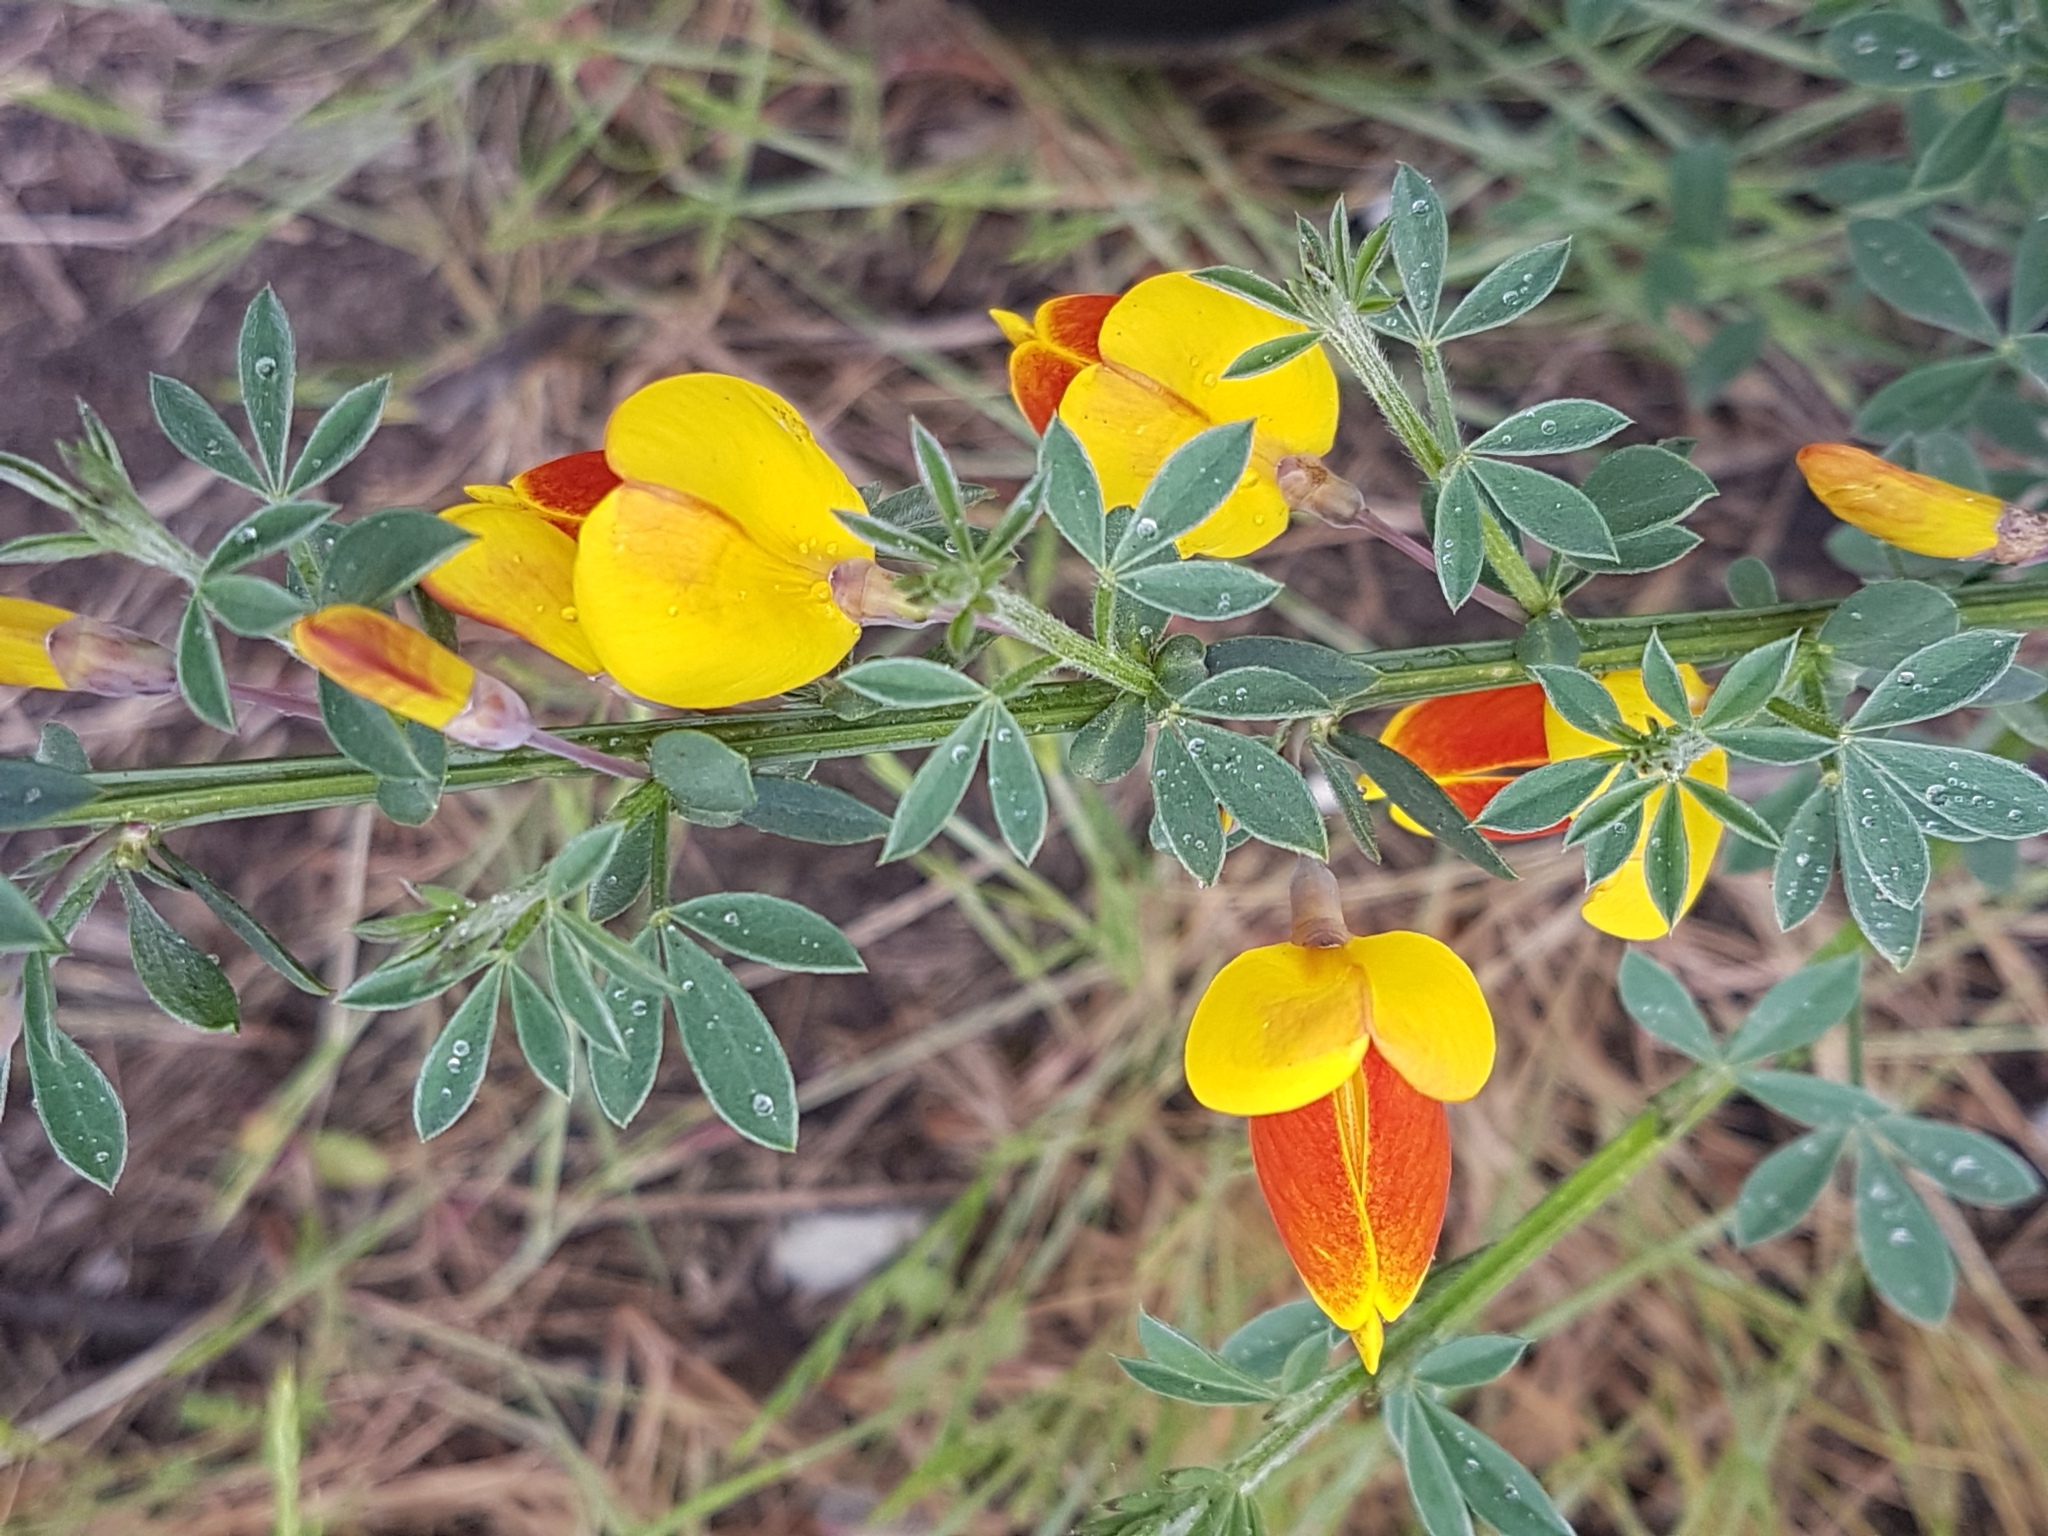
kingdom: Plantae
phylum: Tracheophyta
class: Magnoliopsida
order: Fabales
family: Fabaceae
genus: Cytisus
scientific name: Cytisus scoparius
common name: Scotch broom
